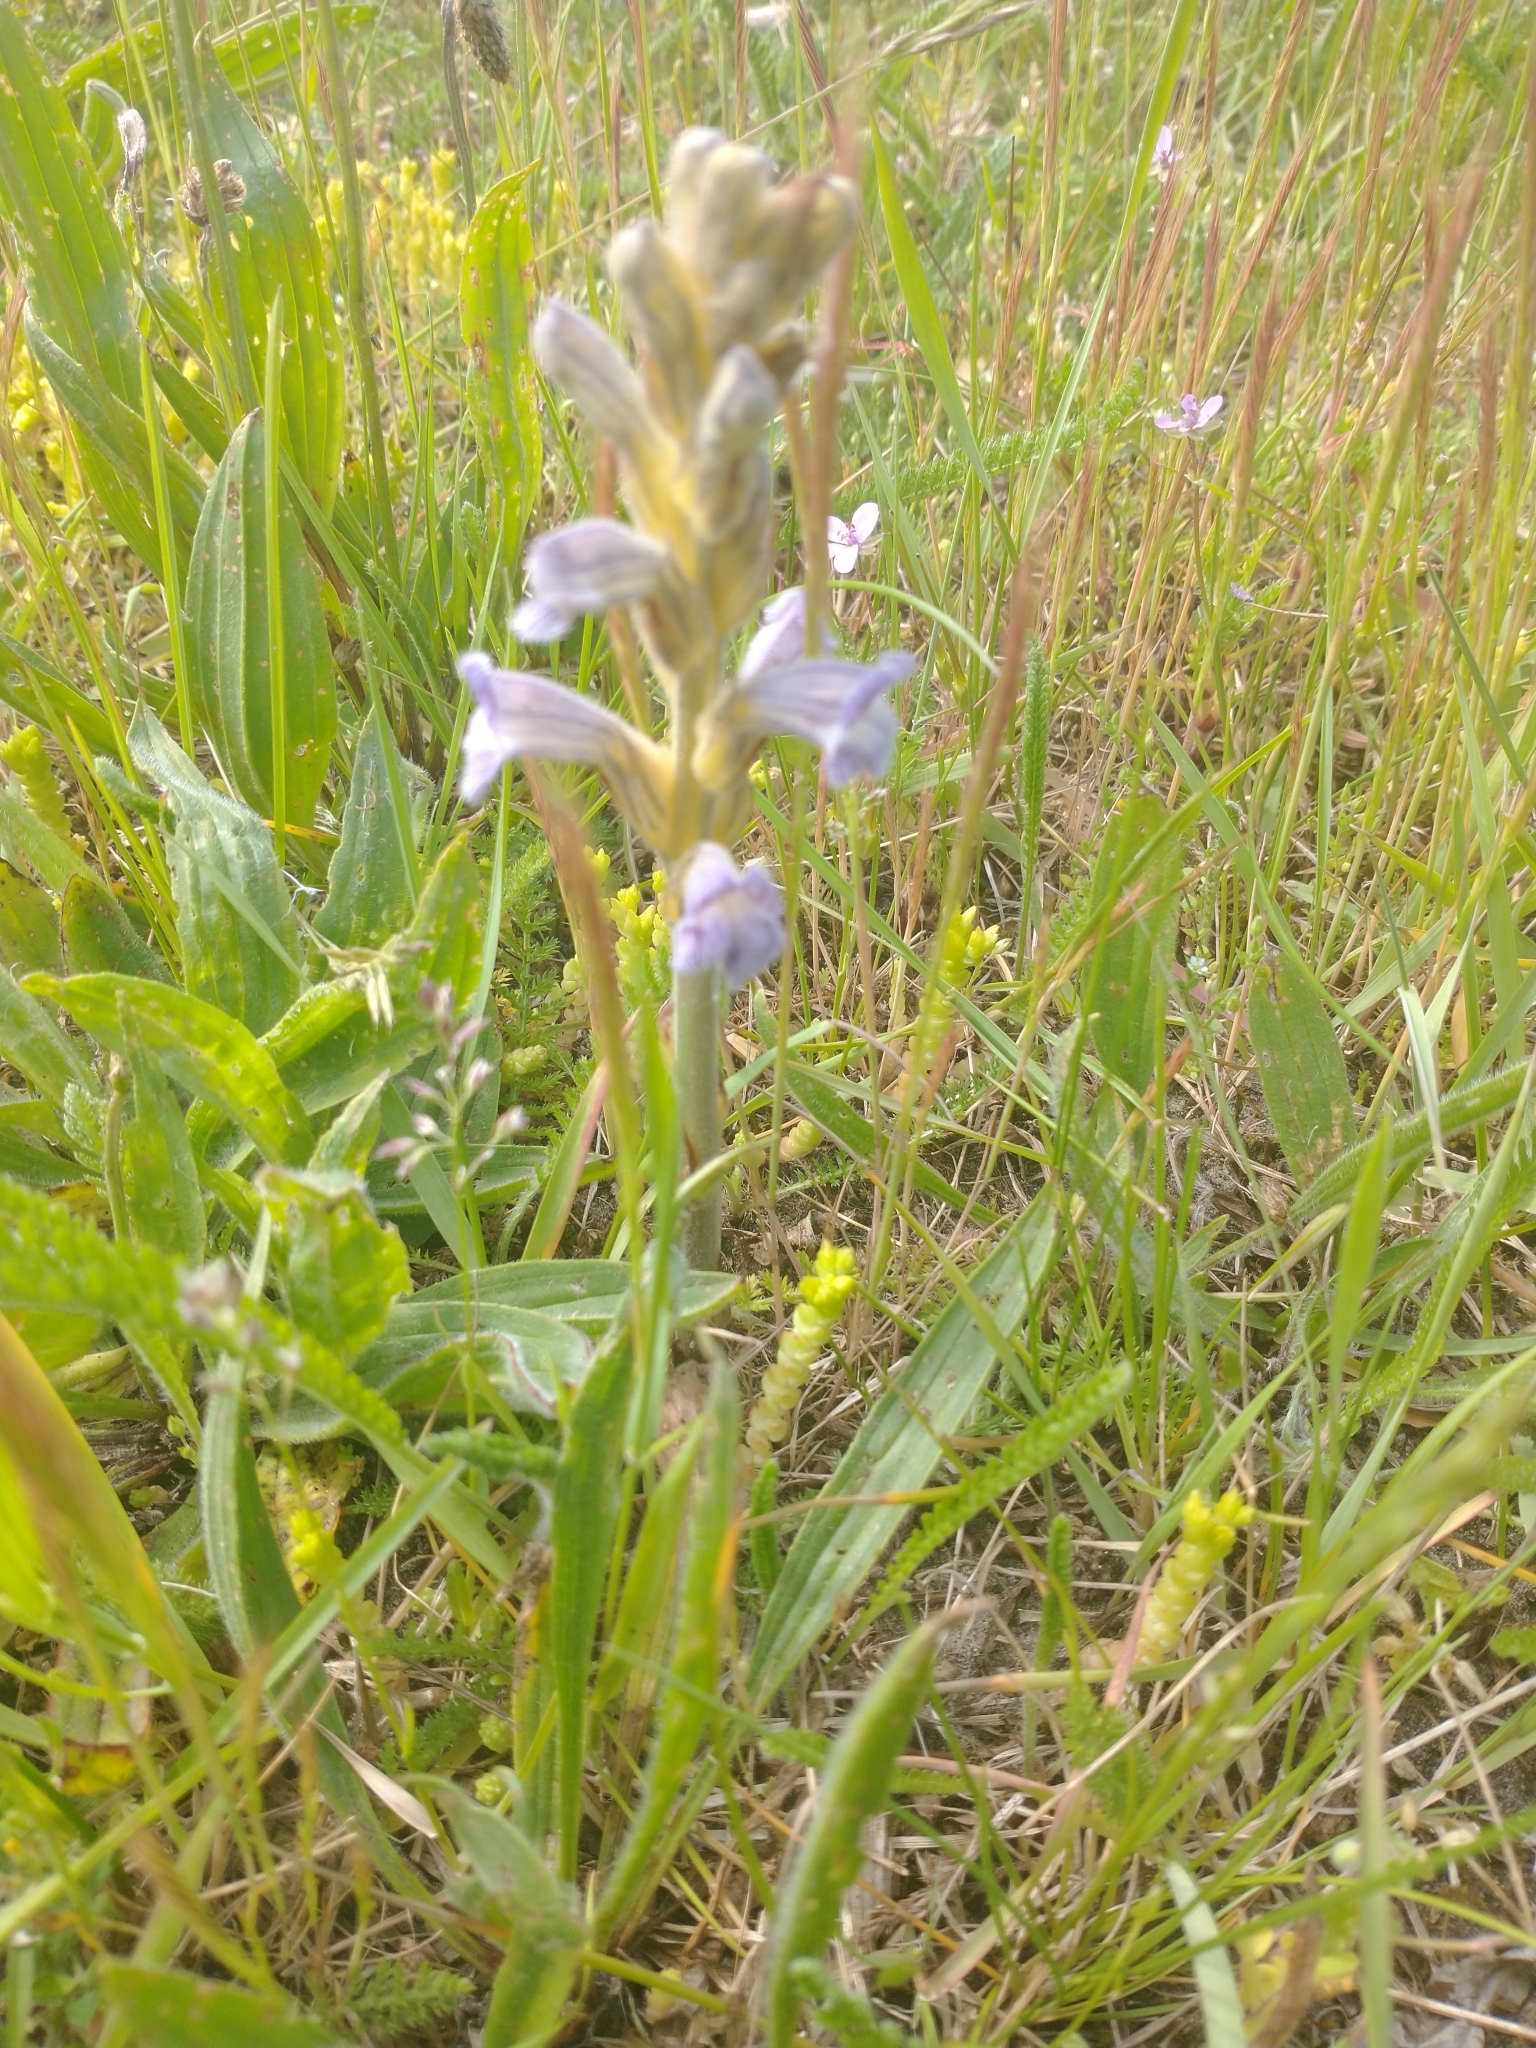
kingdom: Plantae
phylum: Tracheophyta
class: Magnoliopsida
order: Lamiales
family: Orobanchaceae
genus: Phelipanche
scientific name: Phelipanche purpurea
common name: Purple broomrape
